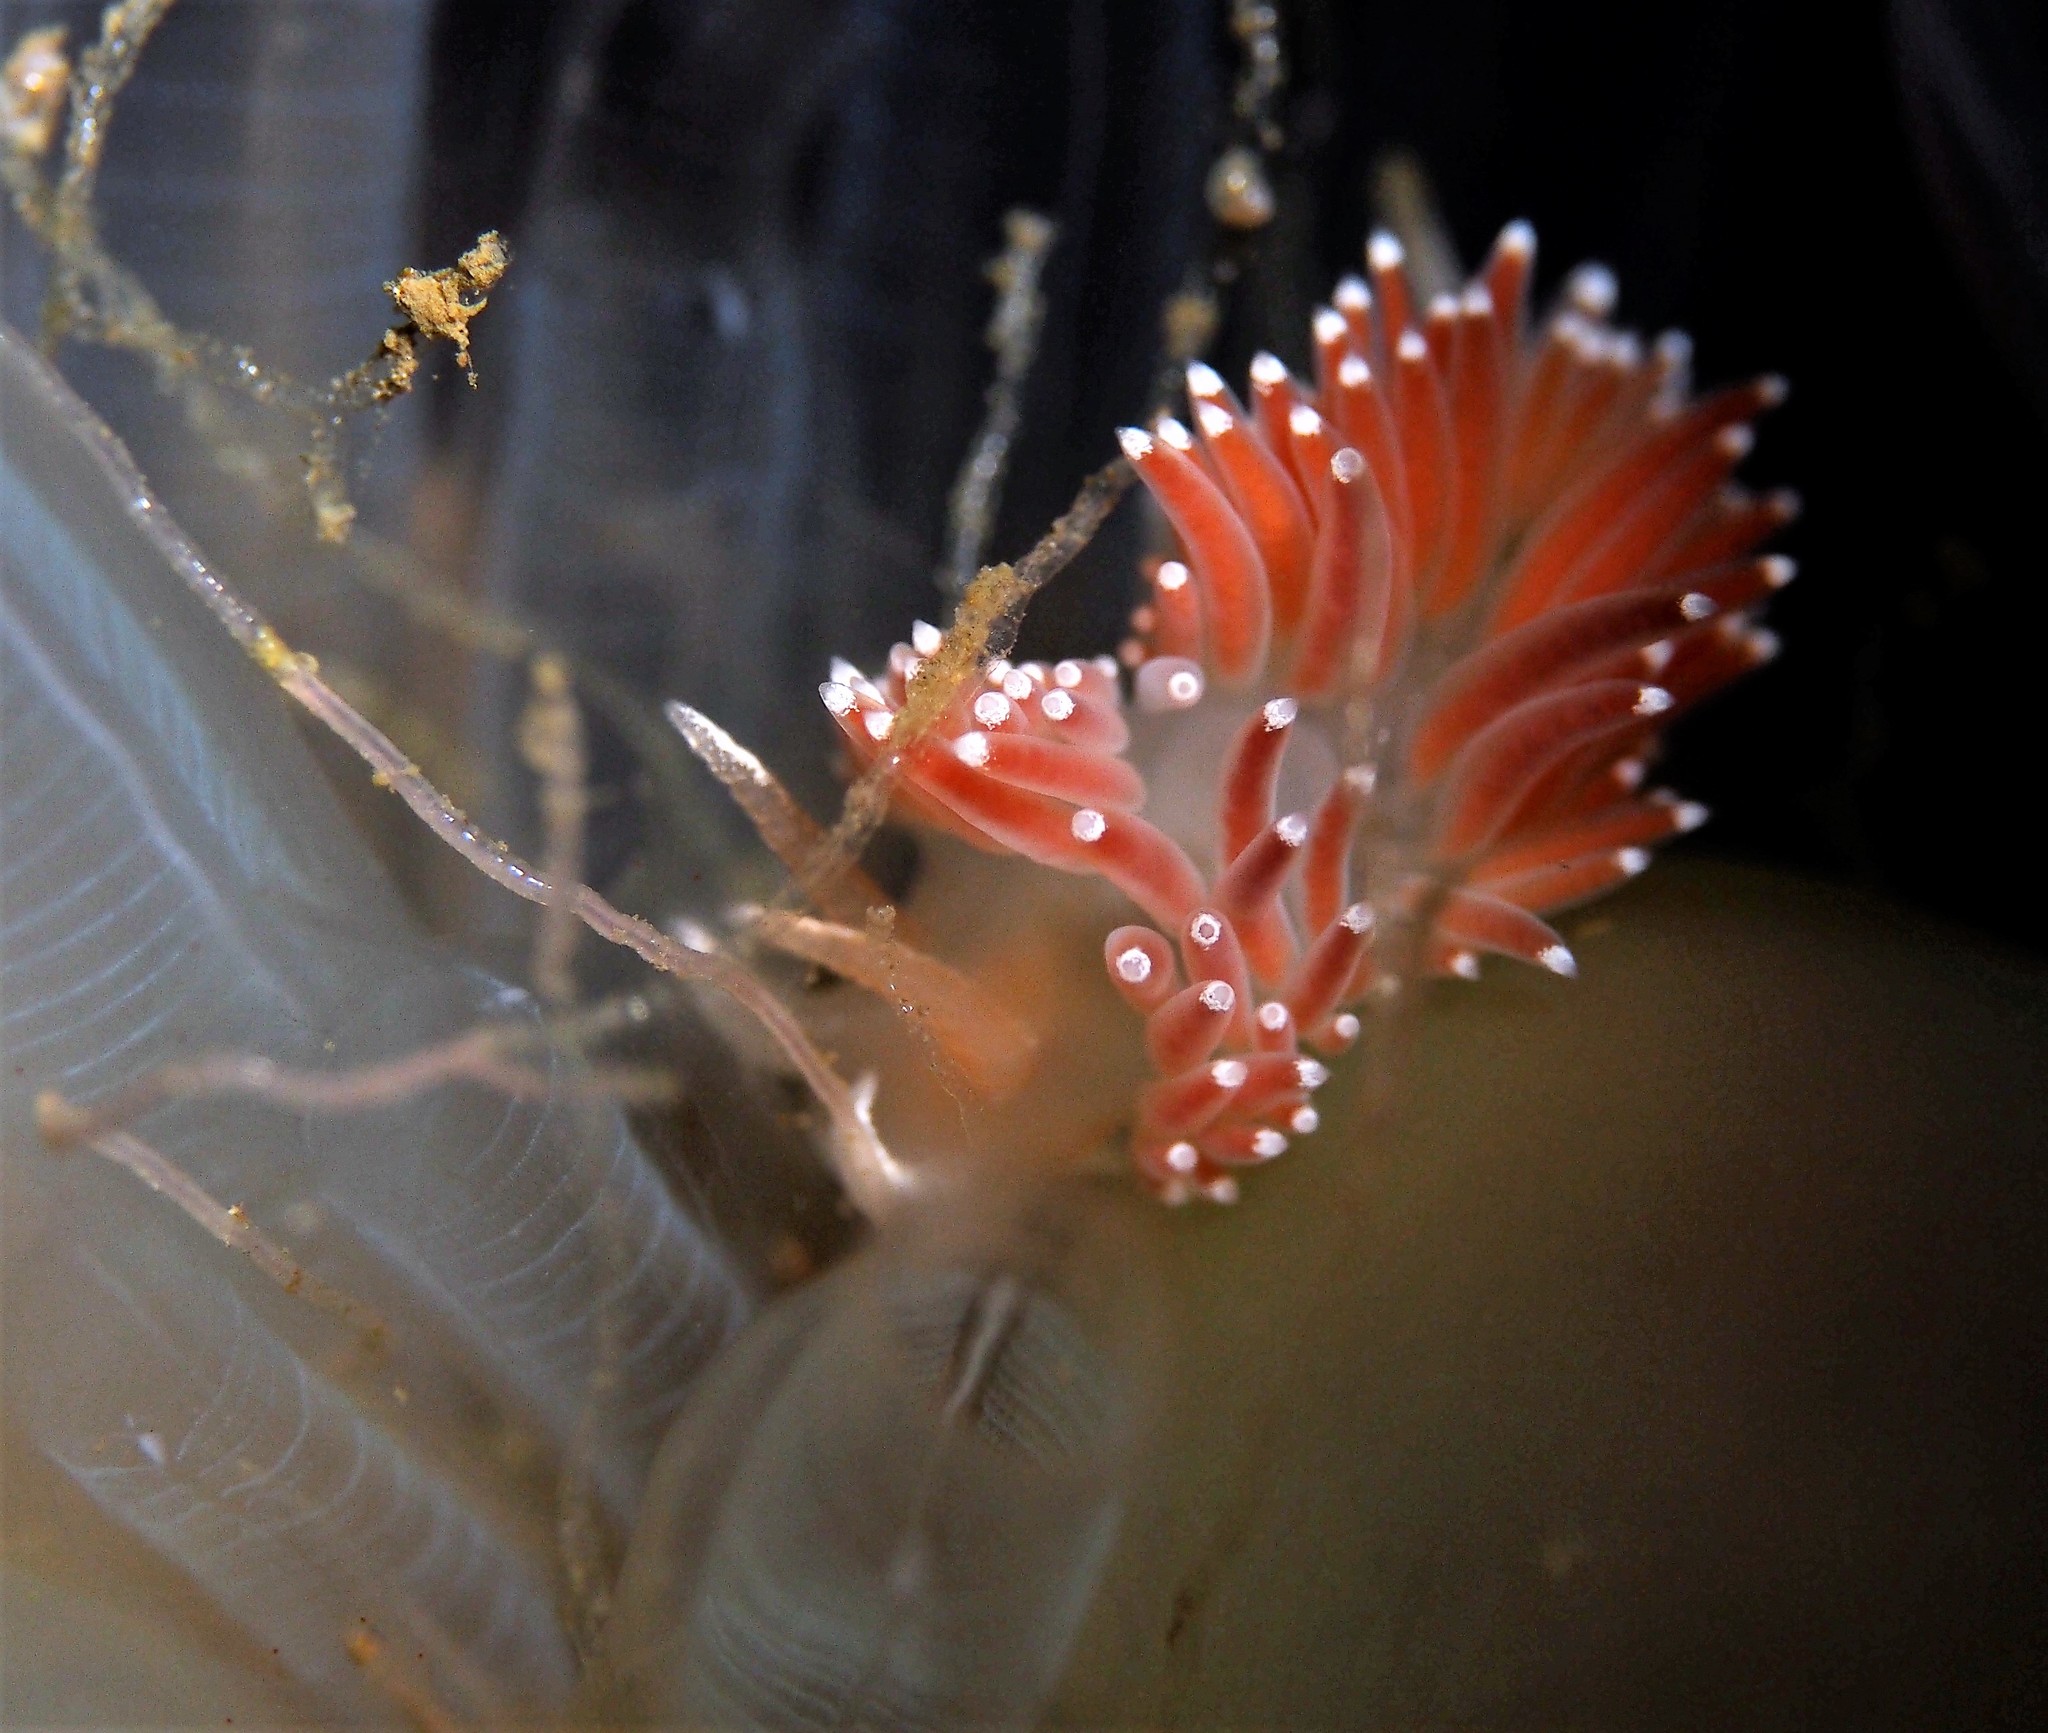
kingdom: Animalia
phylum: Mollusca
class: Gastropoda
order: Nudibranchia
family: Coryphellidae
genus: Coryphella
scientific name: Coryphella verrucosa
